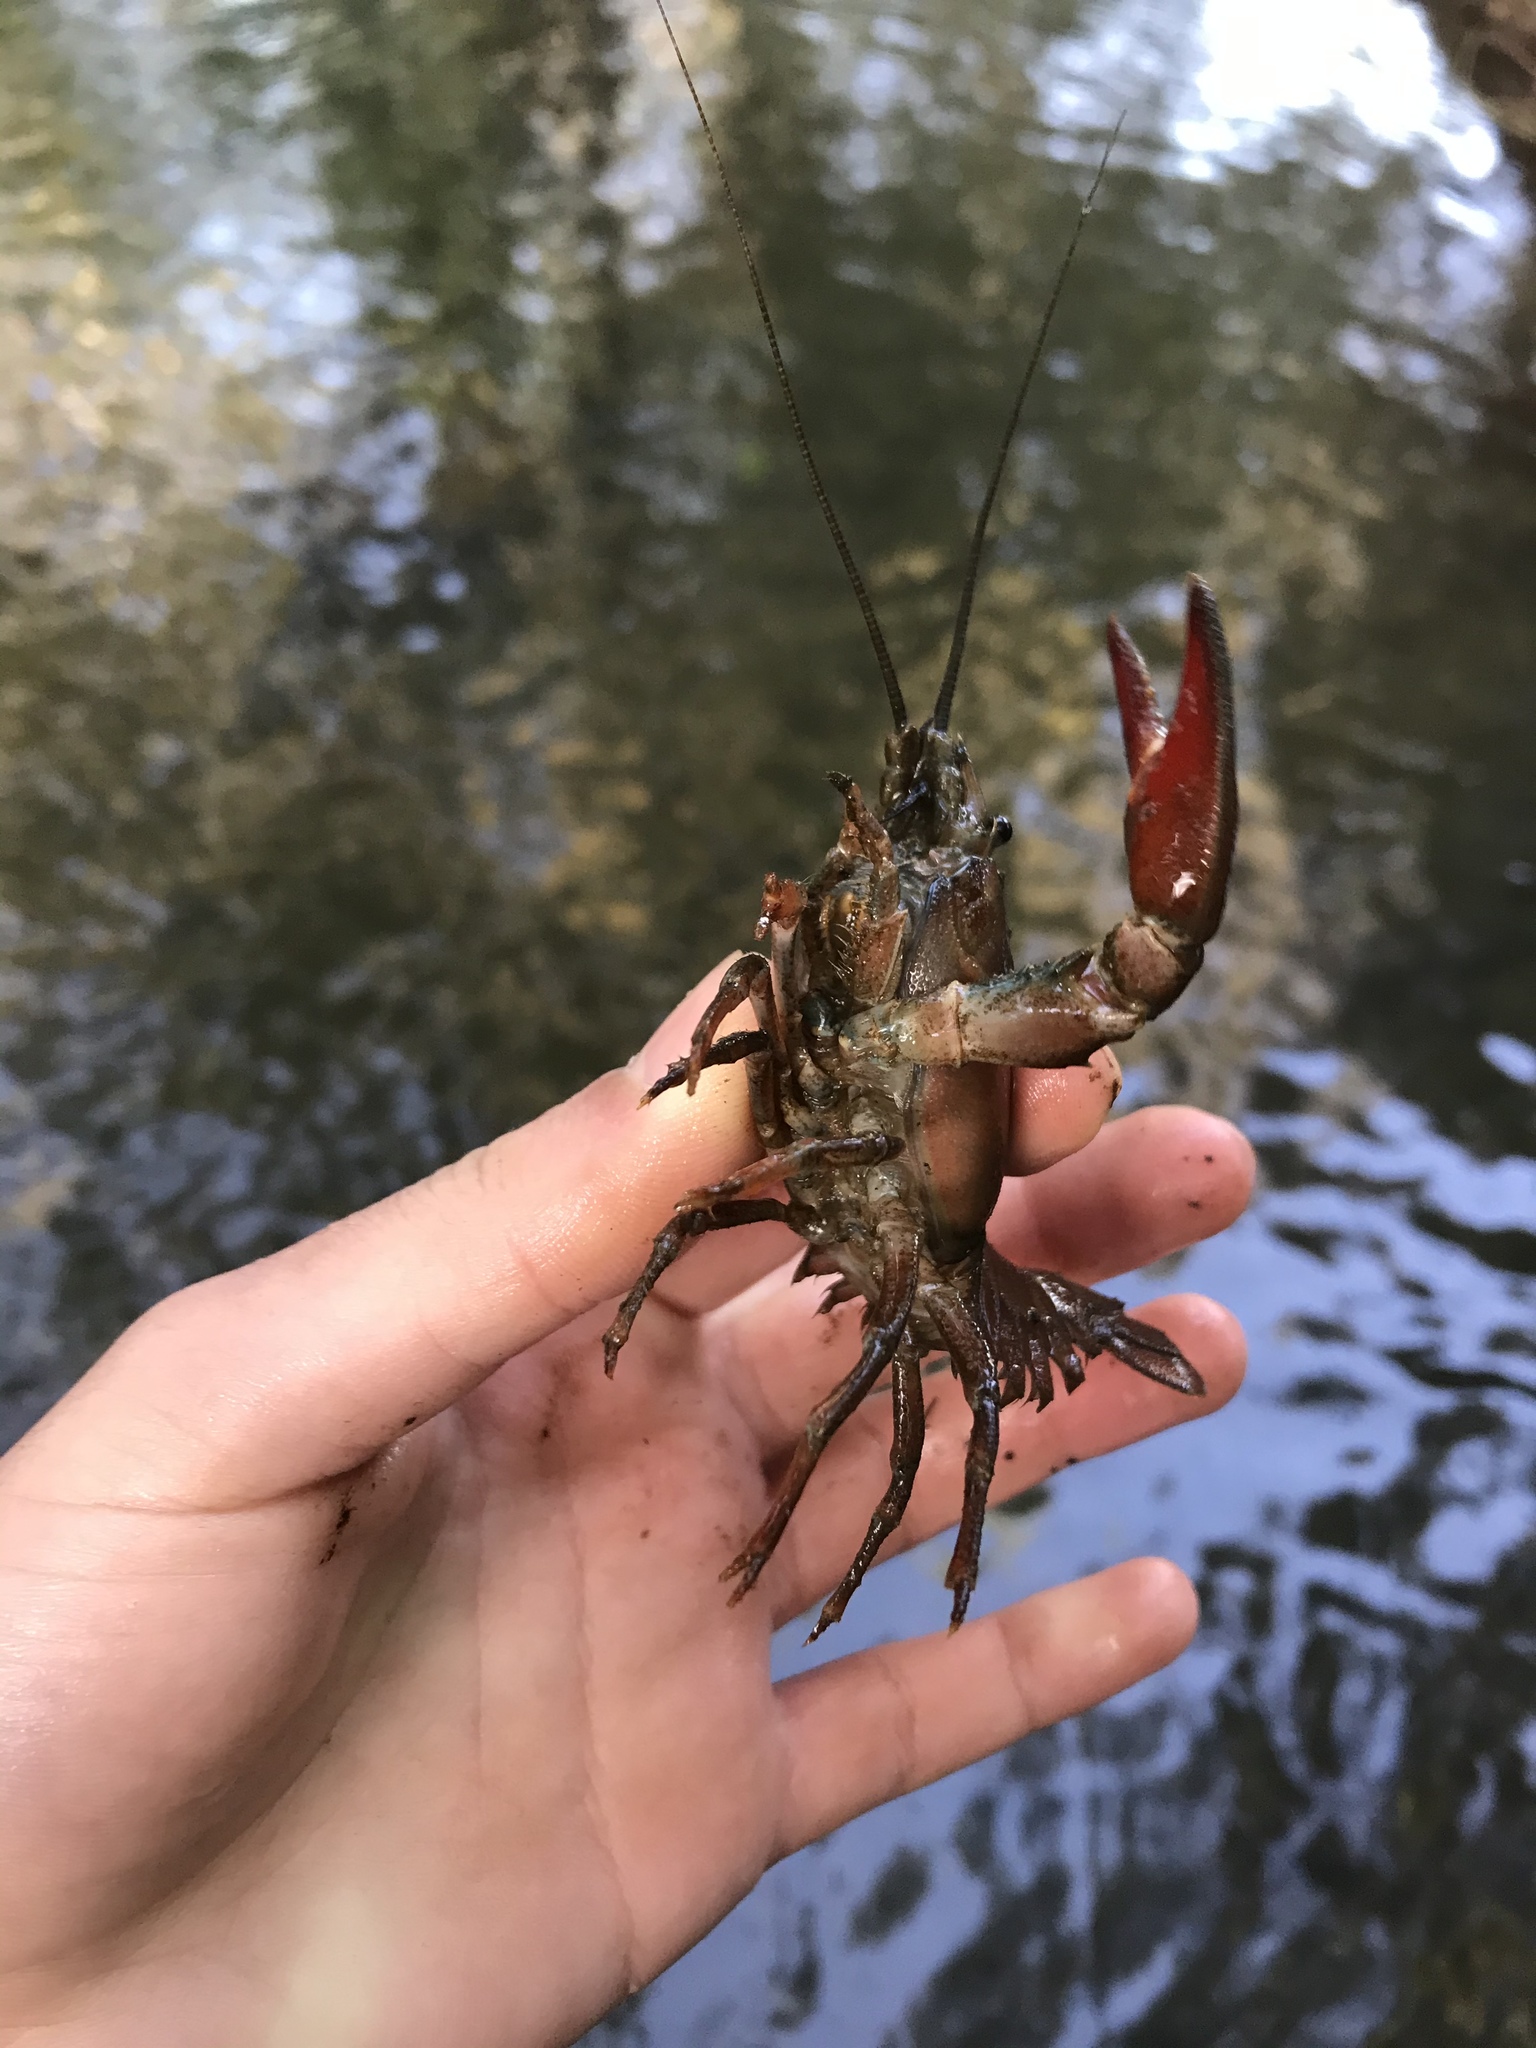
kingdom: Animalia
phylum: Arthropoda
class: Malacostraca
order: Decapoda
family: Astacidae
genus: Pacifastacus
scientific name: Pacifastacus leniusculus
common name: Signal crayfish
